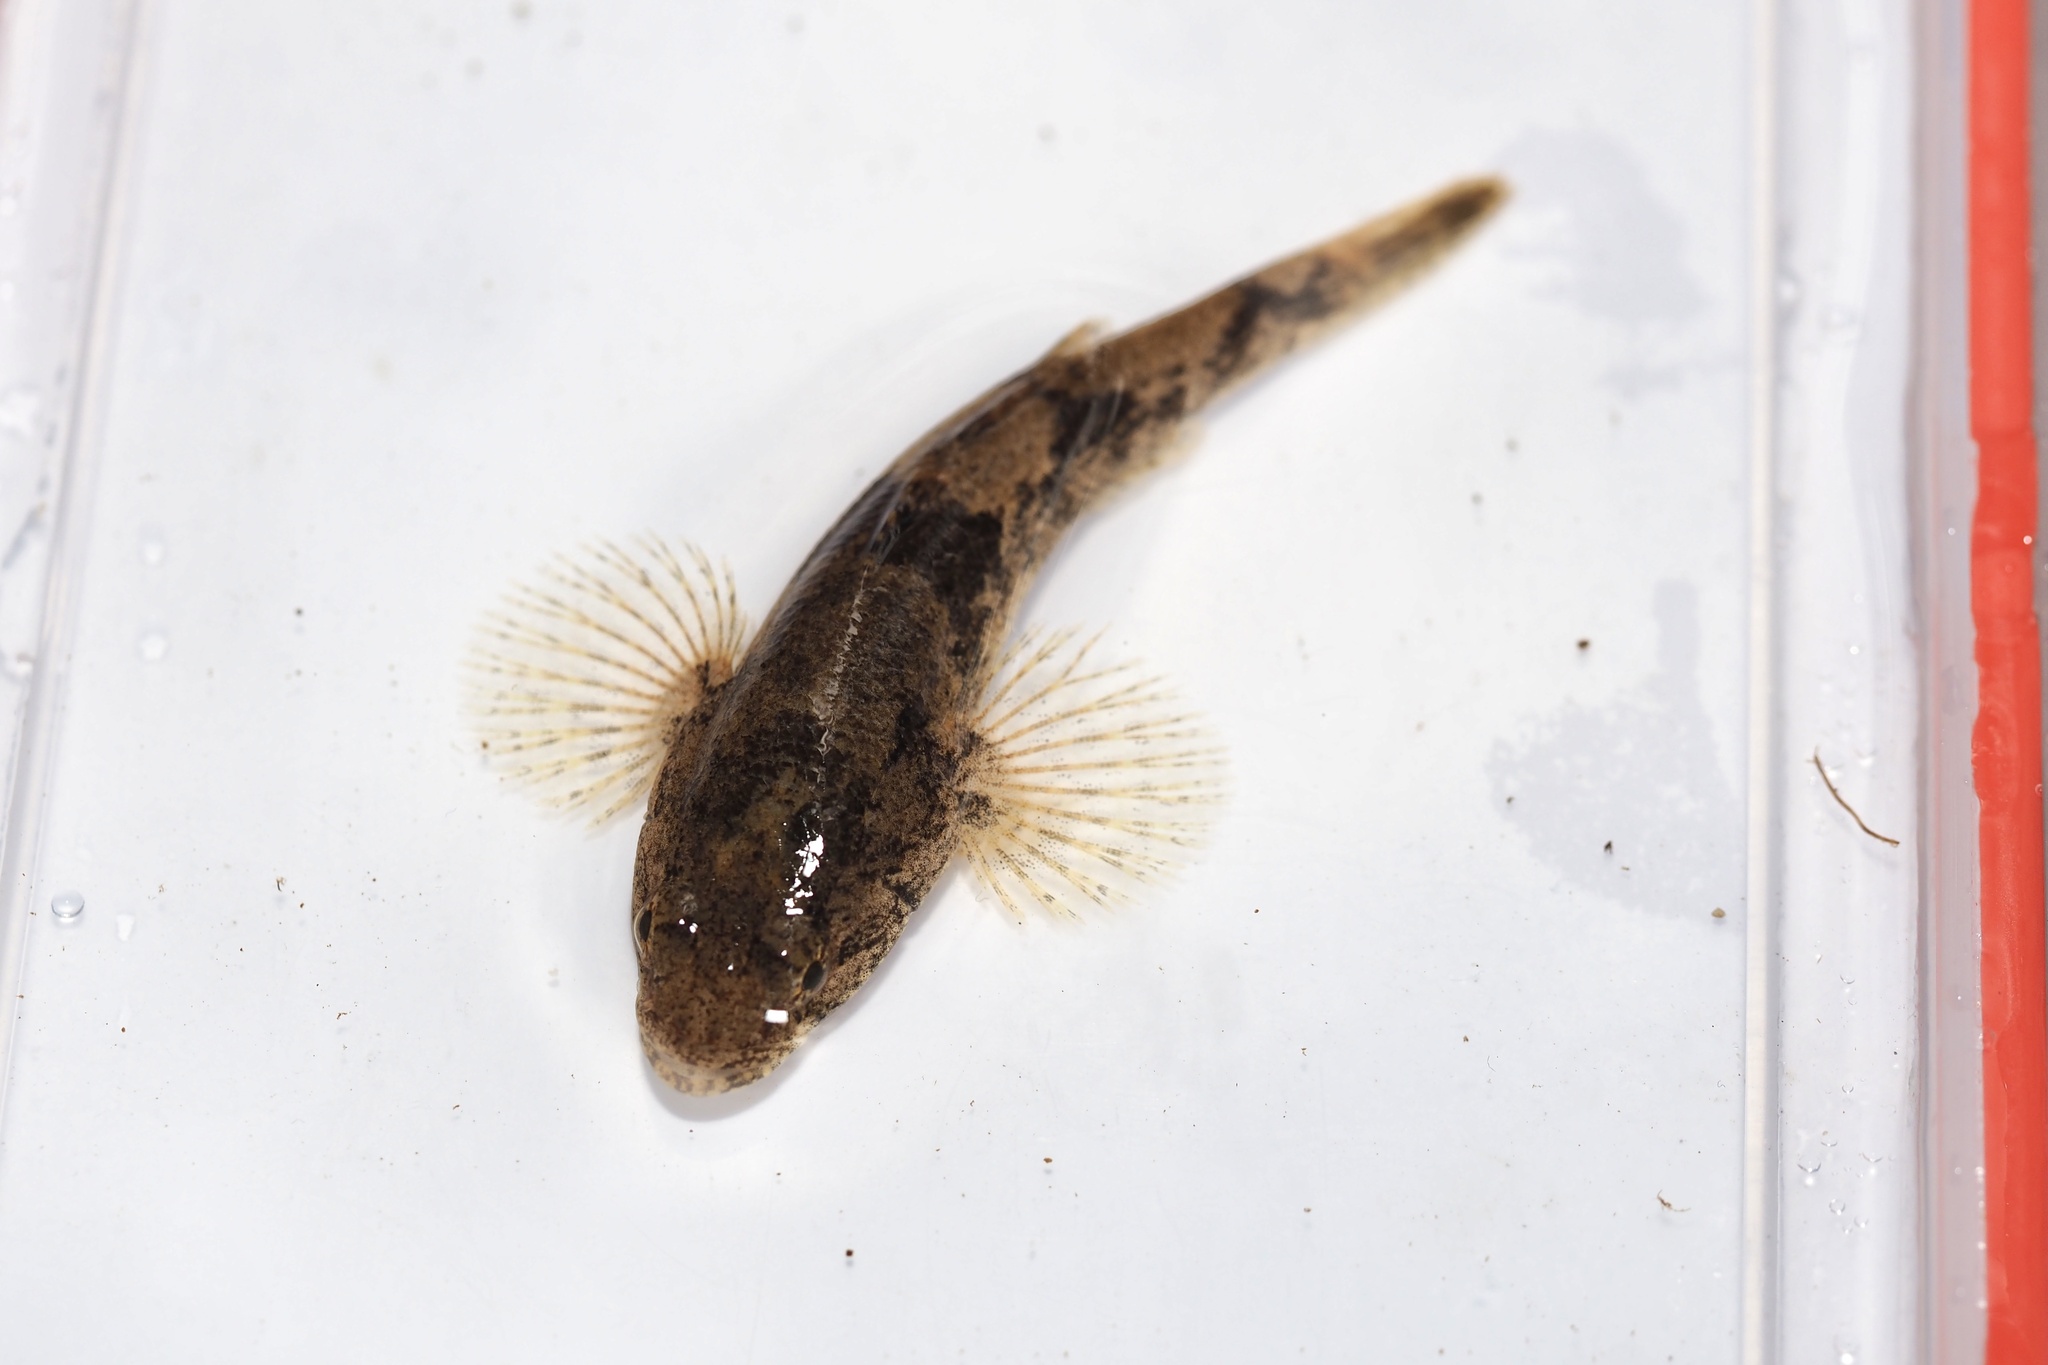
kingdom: Animalia
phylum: Chordata
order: Perciformes
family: Odontobutidae
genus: Odontobutis
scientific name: Odontobutis obscura
